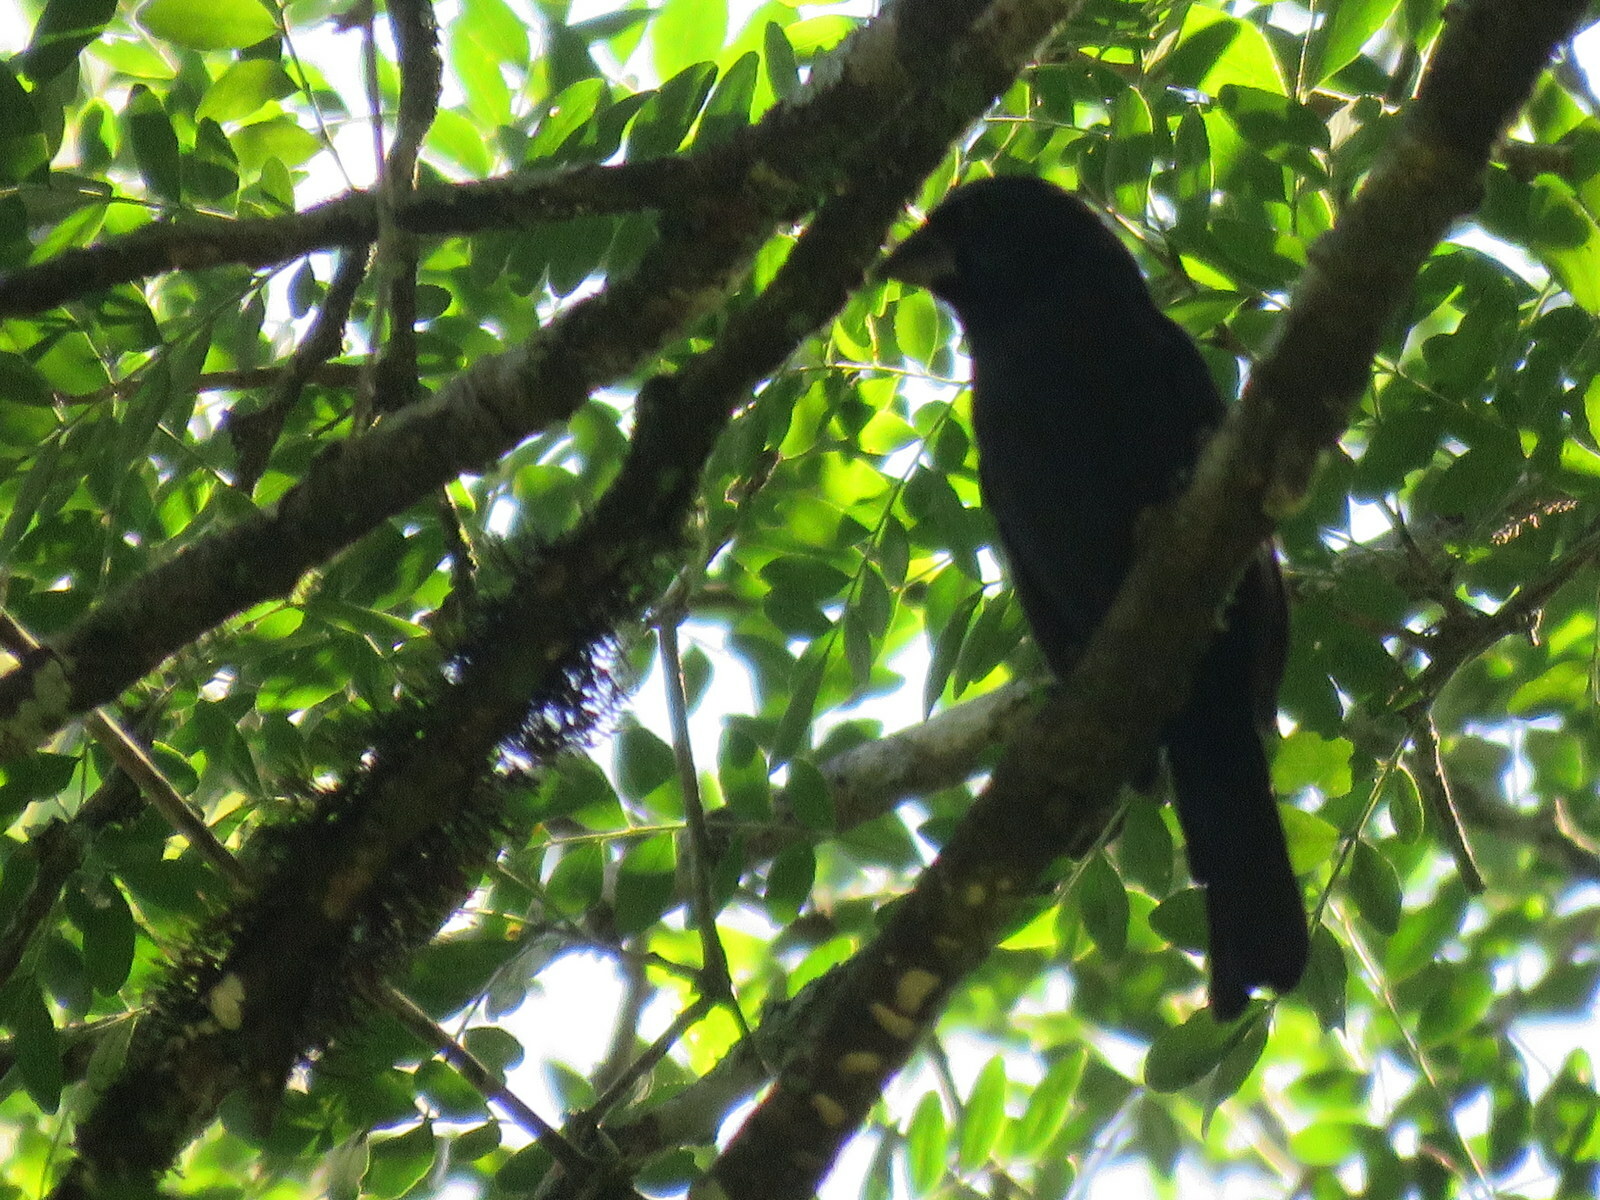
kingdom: Animalia
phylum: Chordata
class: Aves
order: Passeriformes
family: Cardinalidae
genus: Cyanoloxia
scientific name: Cyanoloxia brissonii
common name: Ultramarine grosbeak
